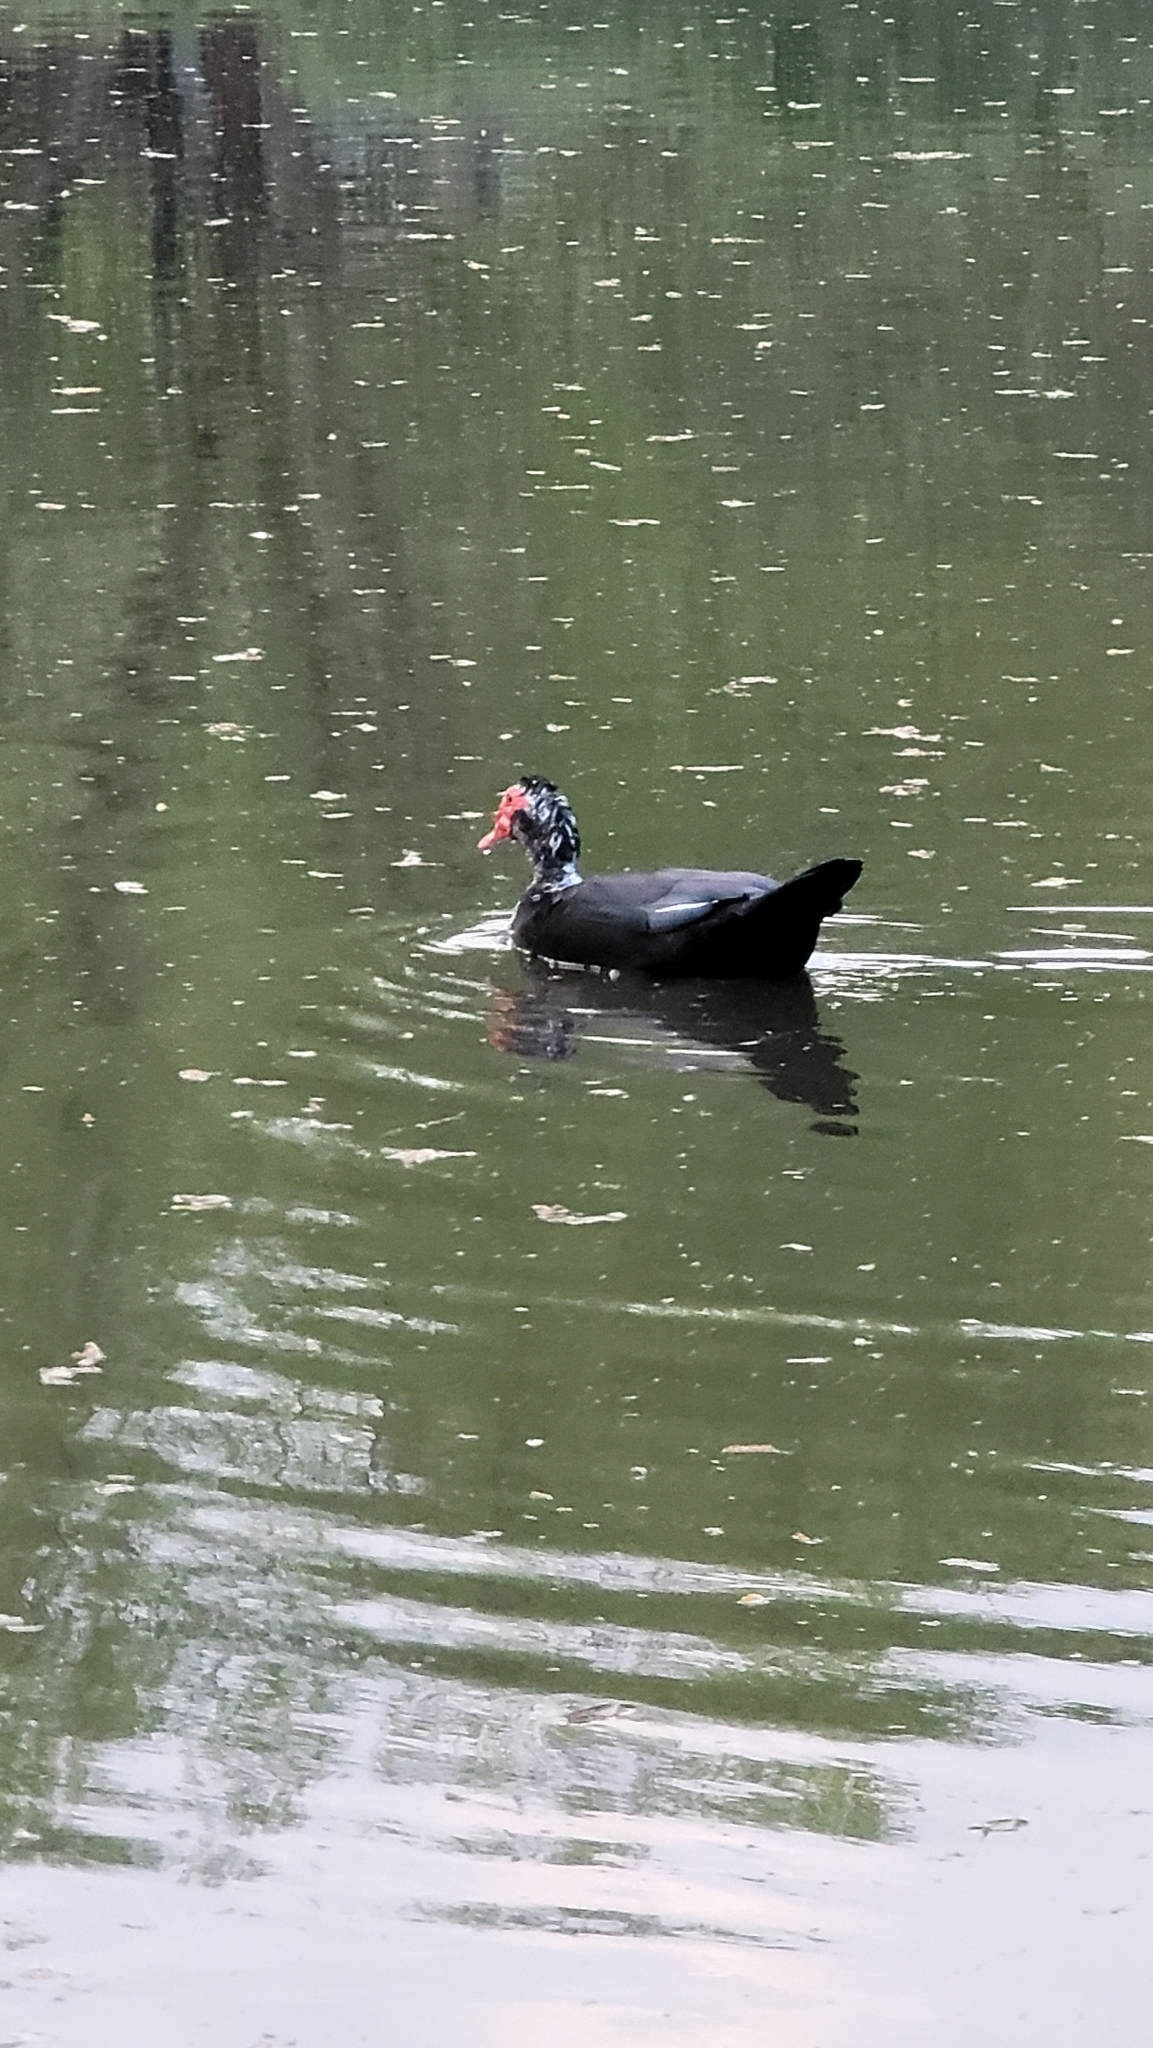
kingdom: Animalia
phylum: Chordata
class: Aves
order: Anseriformes
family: Anatidae
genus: Cairina
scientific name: Cairina moschata
